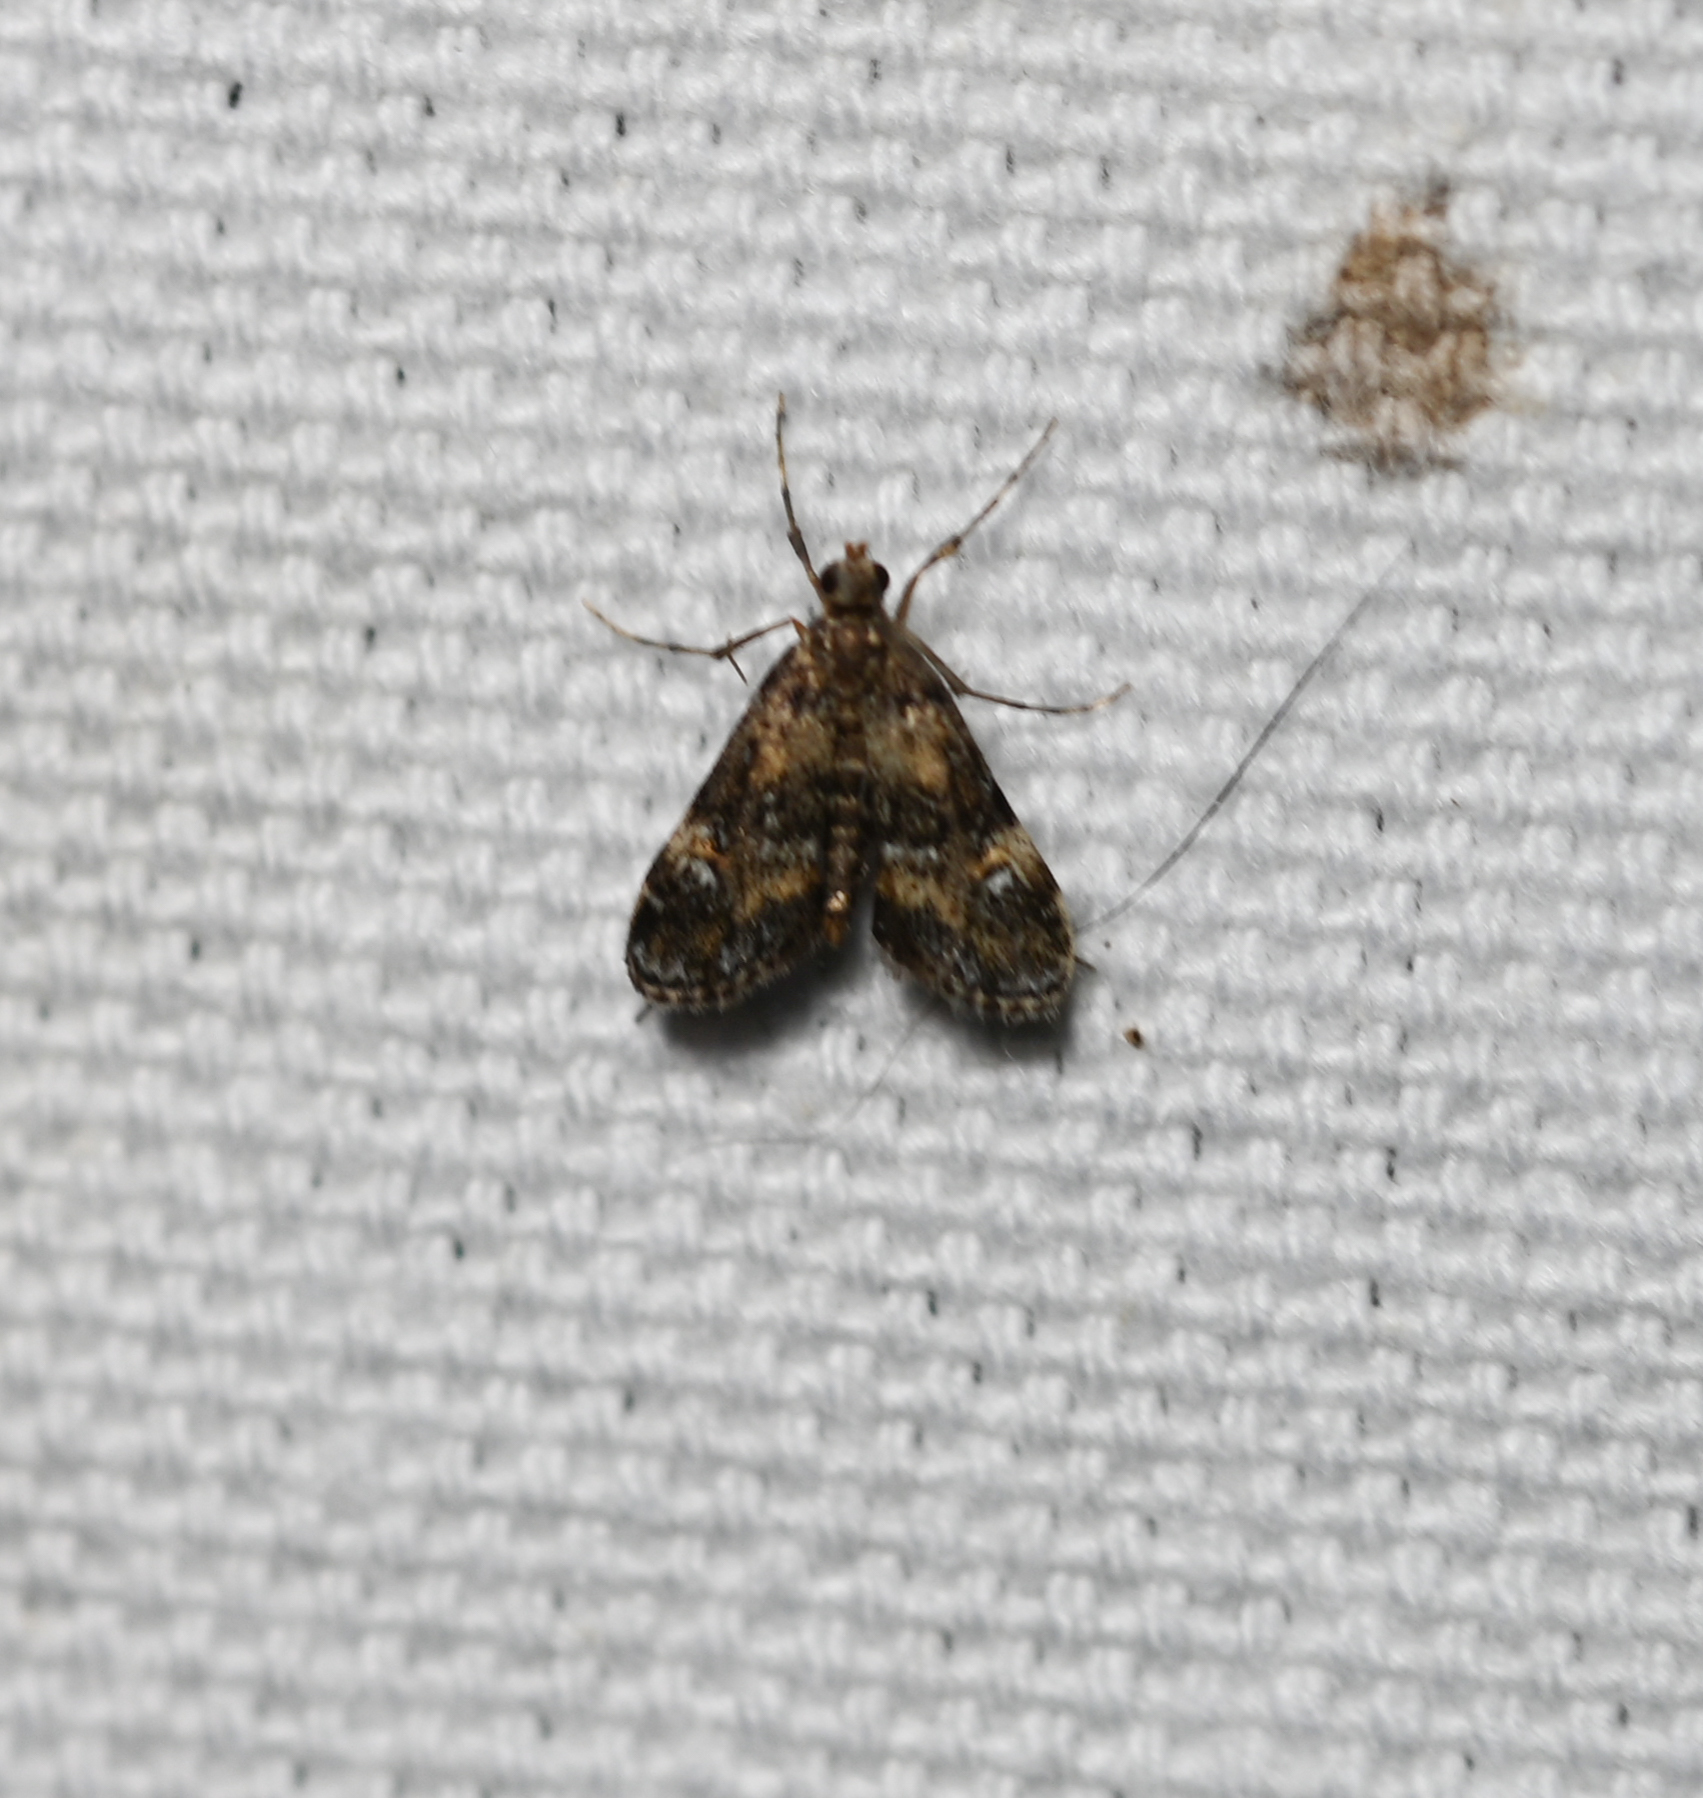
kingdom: Animalia
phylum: Arthropoda
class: Insecta
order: Lepidoptera
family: Crambidae
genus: Elophila
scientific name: Elophila obliteralis
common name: Waterlily leafcutter moth
